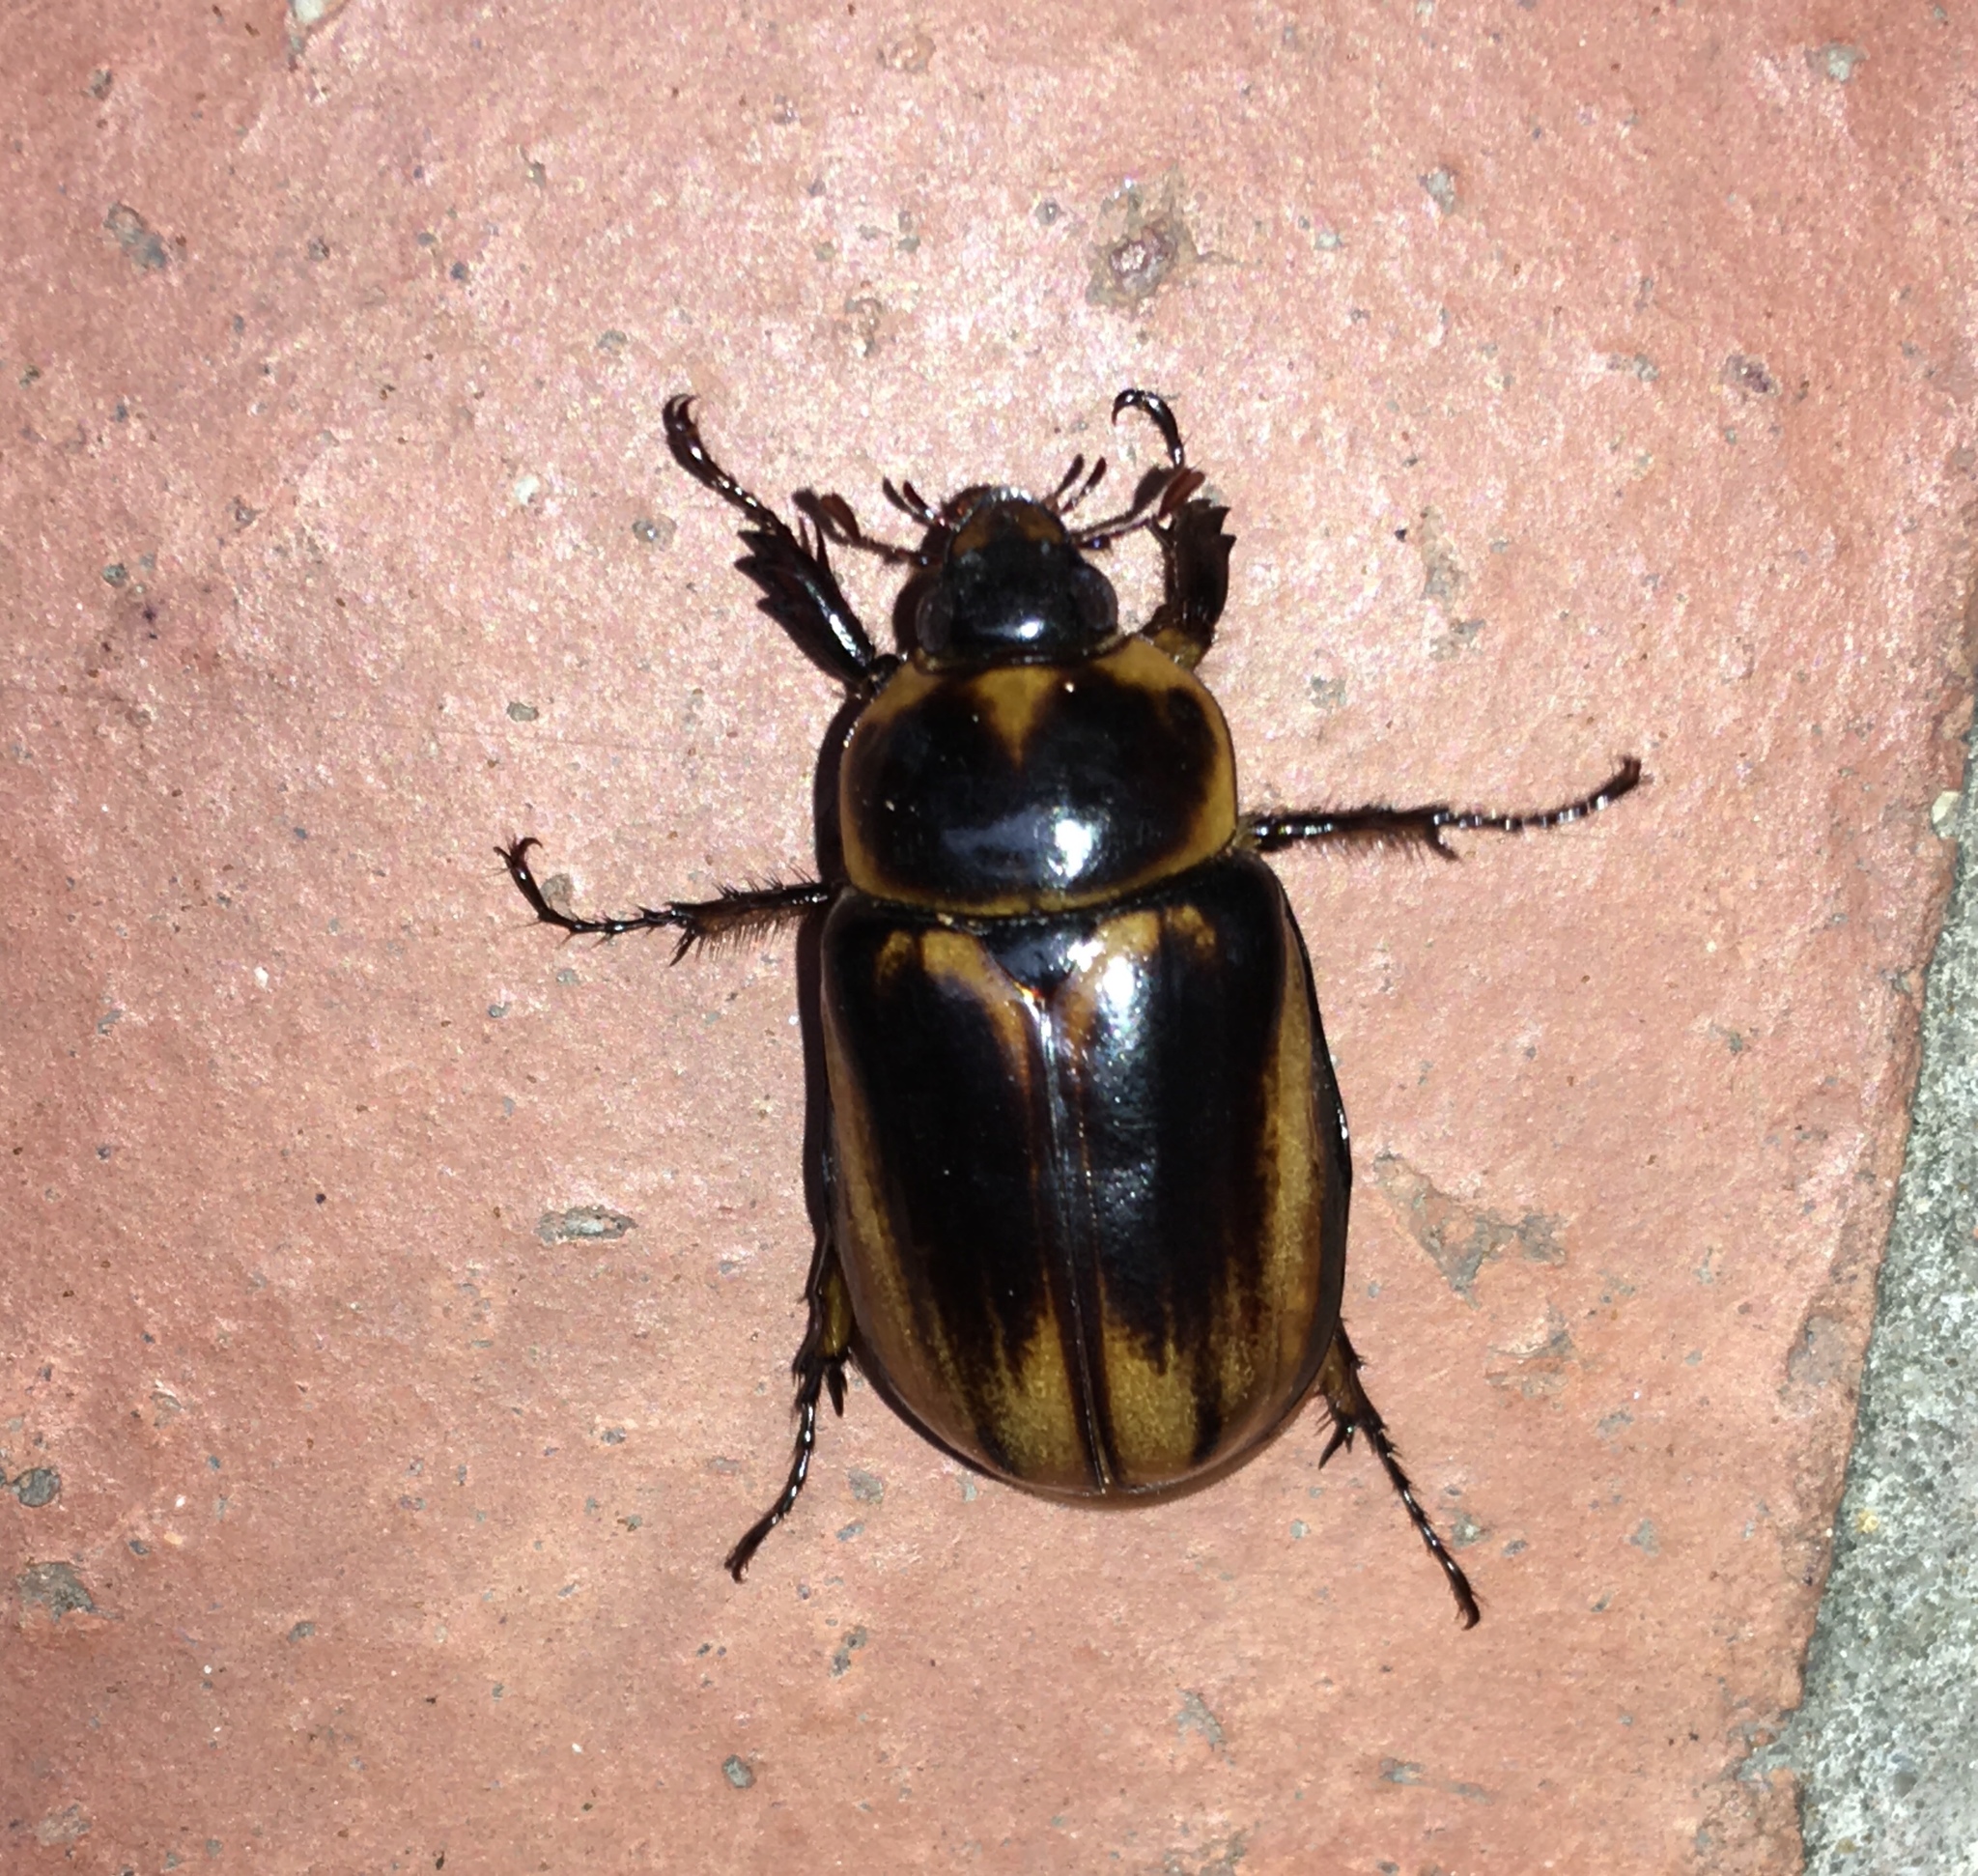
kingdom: Animalia
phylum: Arthropoda
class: Insecta
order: Coleoptera
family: Scarabaeidae
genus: Ancognatha
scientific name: Ancognatha ustulata
